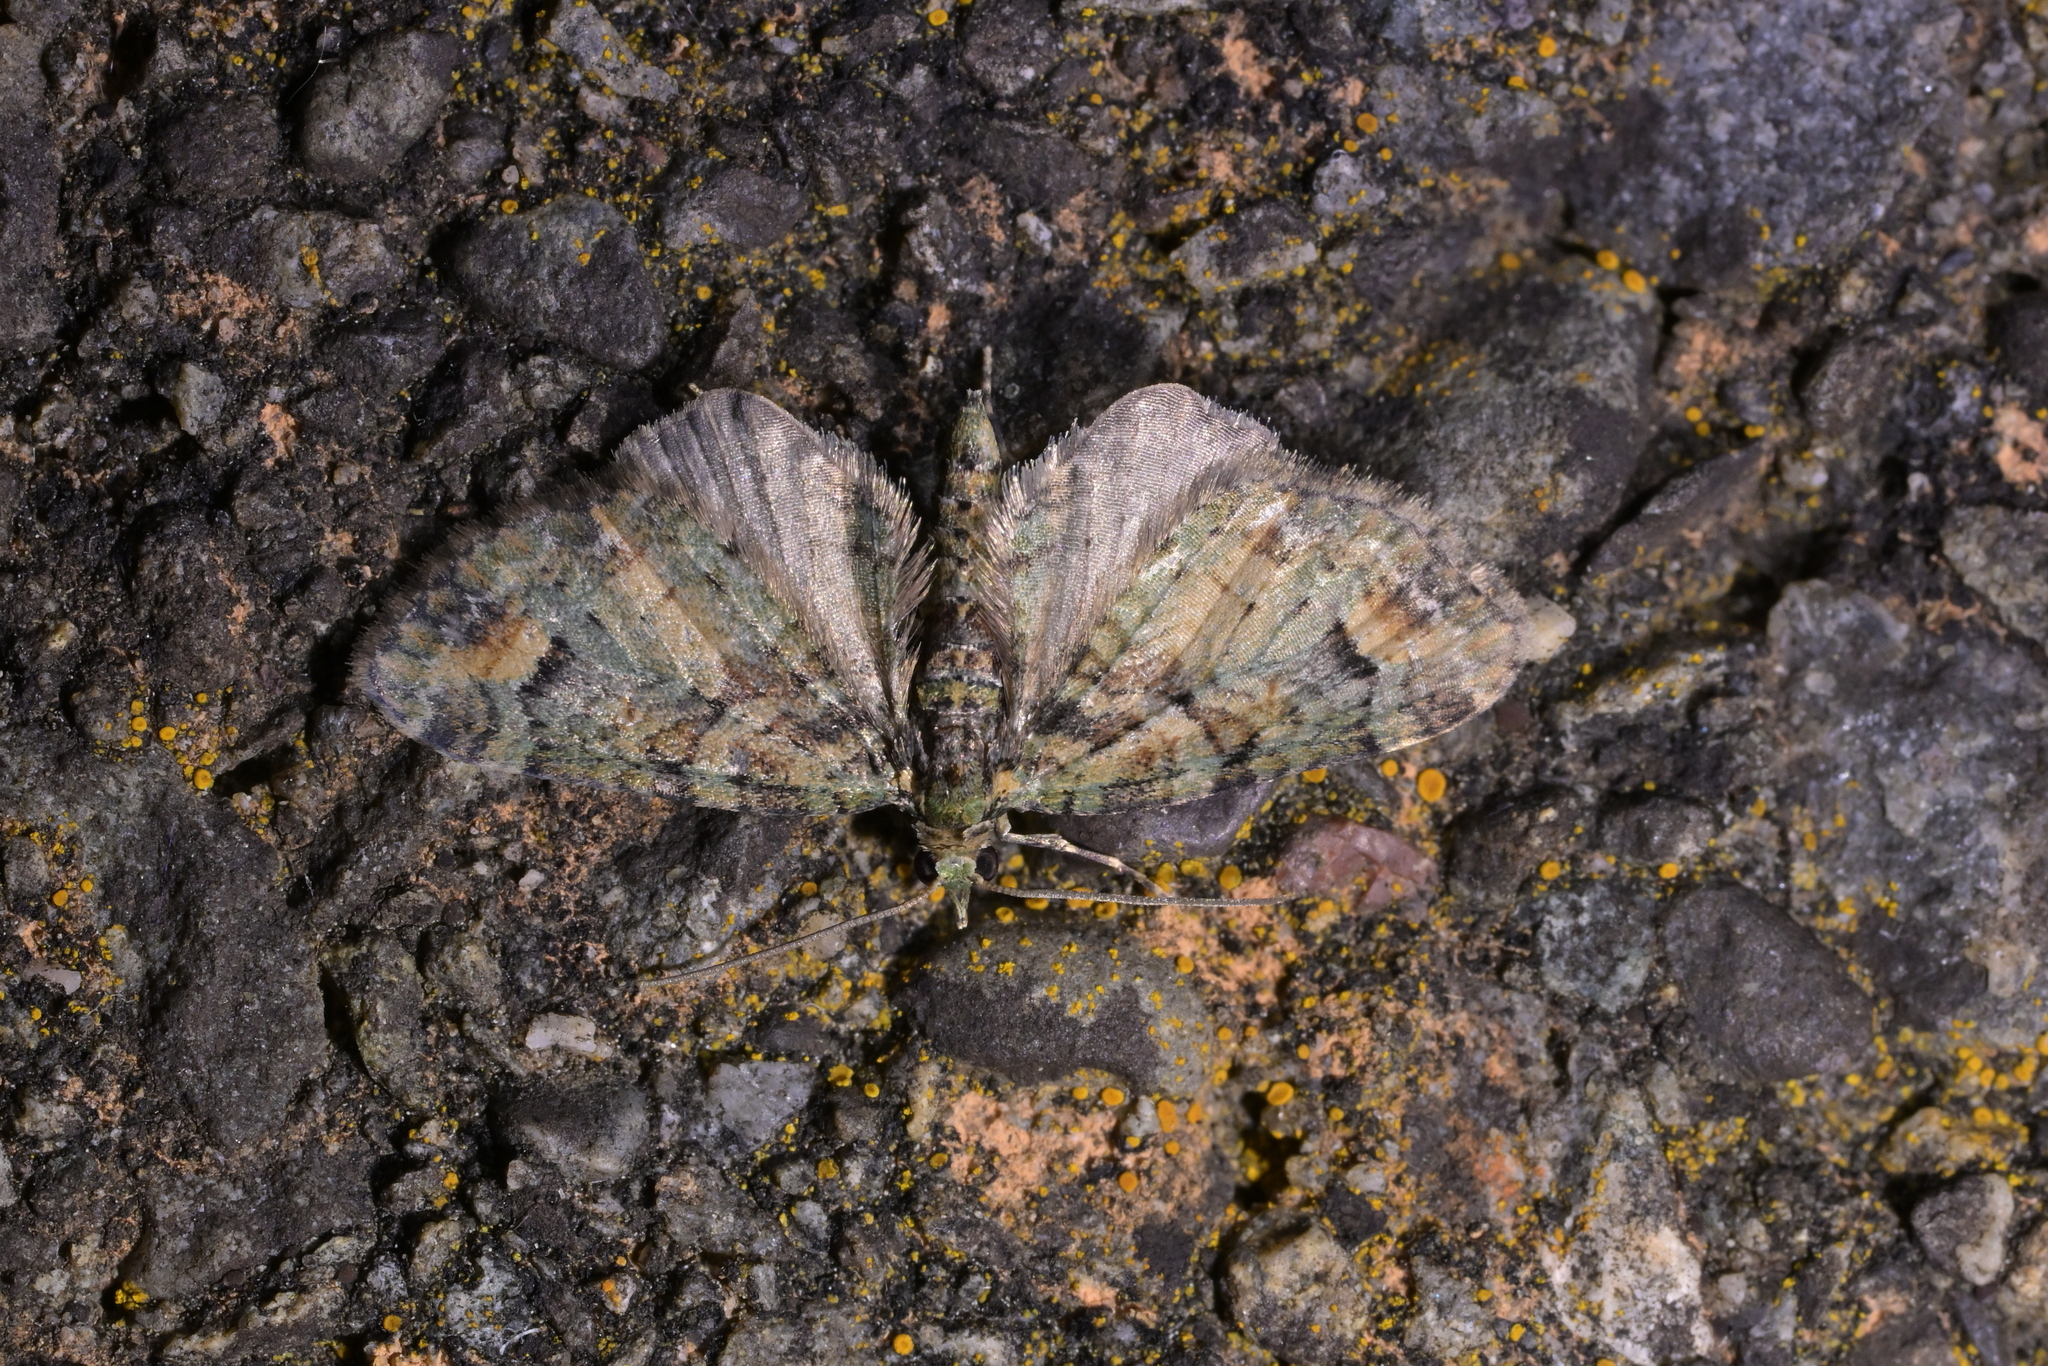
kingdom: Animalia
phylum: Arthropoda
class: Insecta
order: Lepidoptera
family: Geometridae
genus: Idaea
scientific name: Idaea mutanda
